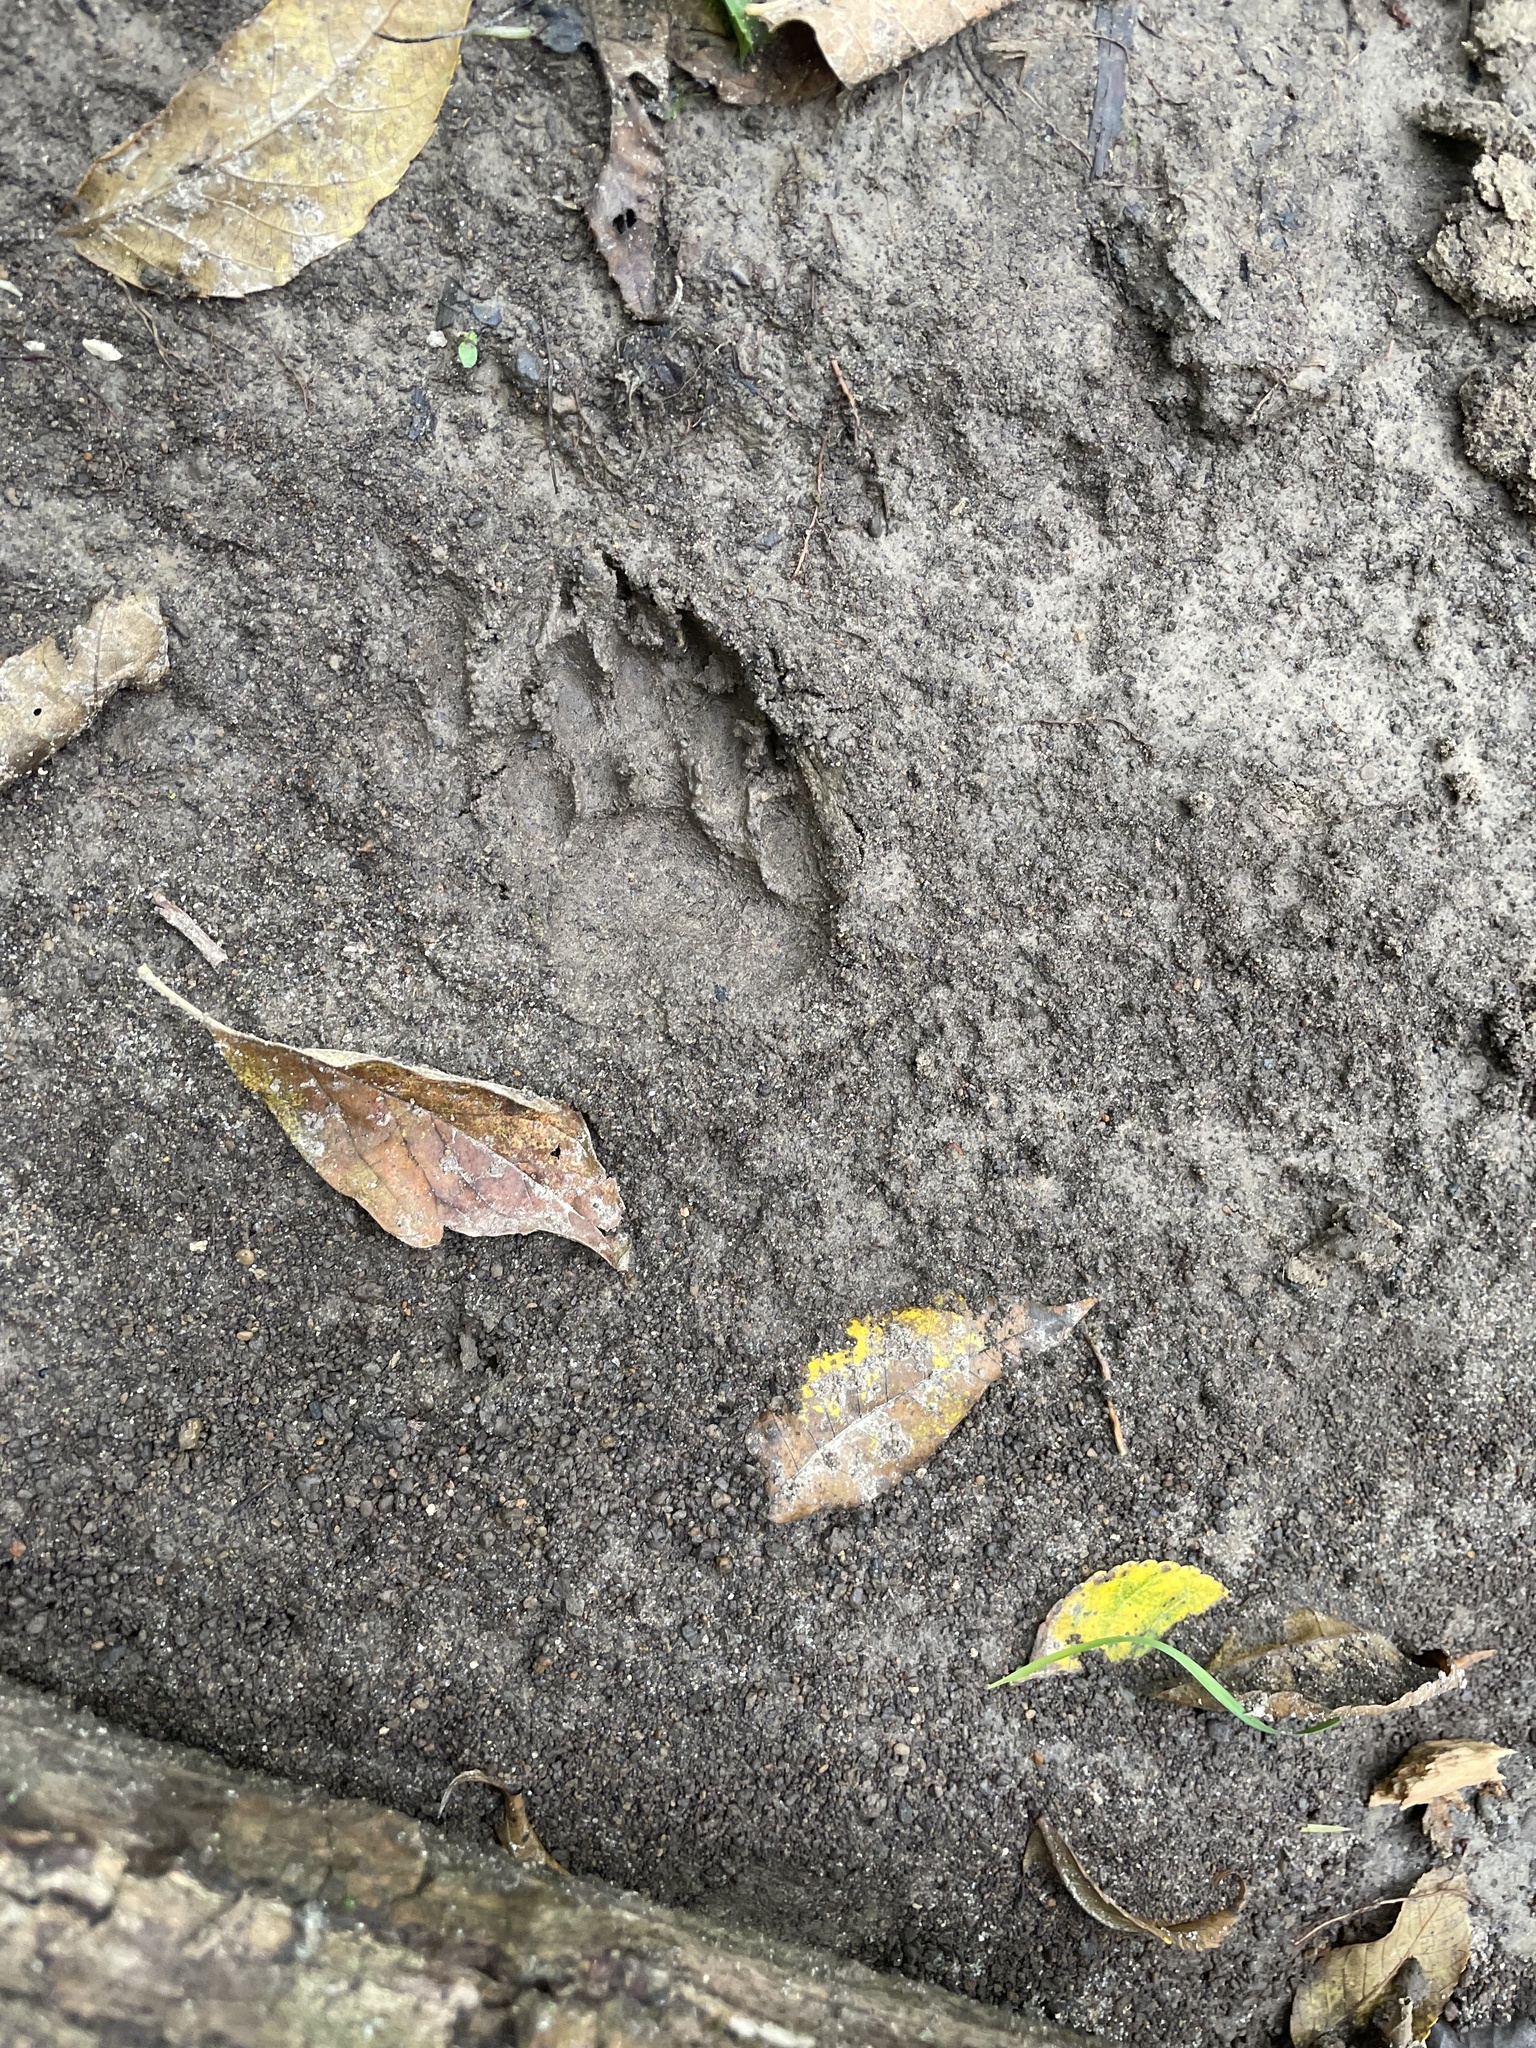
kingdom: Animalia
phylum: Chordata
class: Mammalia
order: Carnivora
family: Procyonidae
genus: Procyon
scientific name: Procyon lotor
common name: Raccoon
